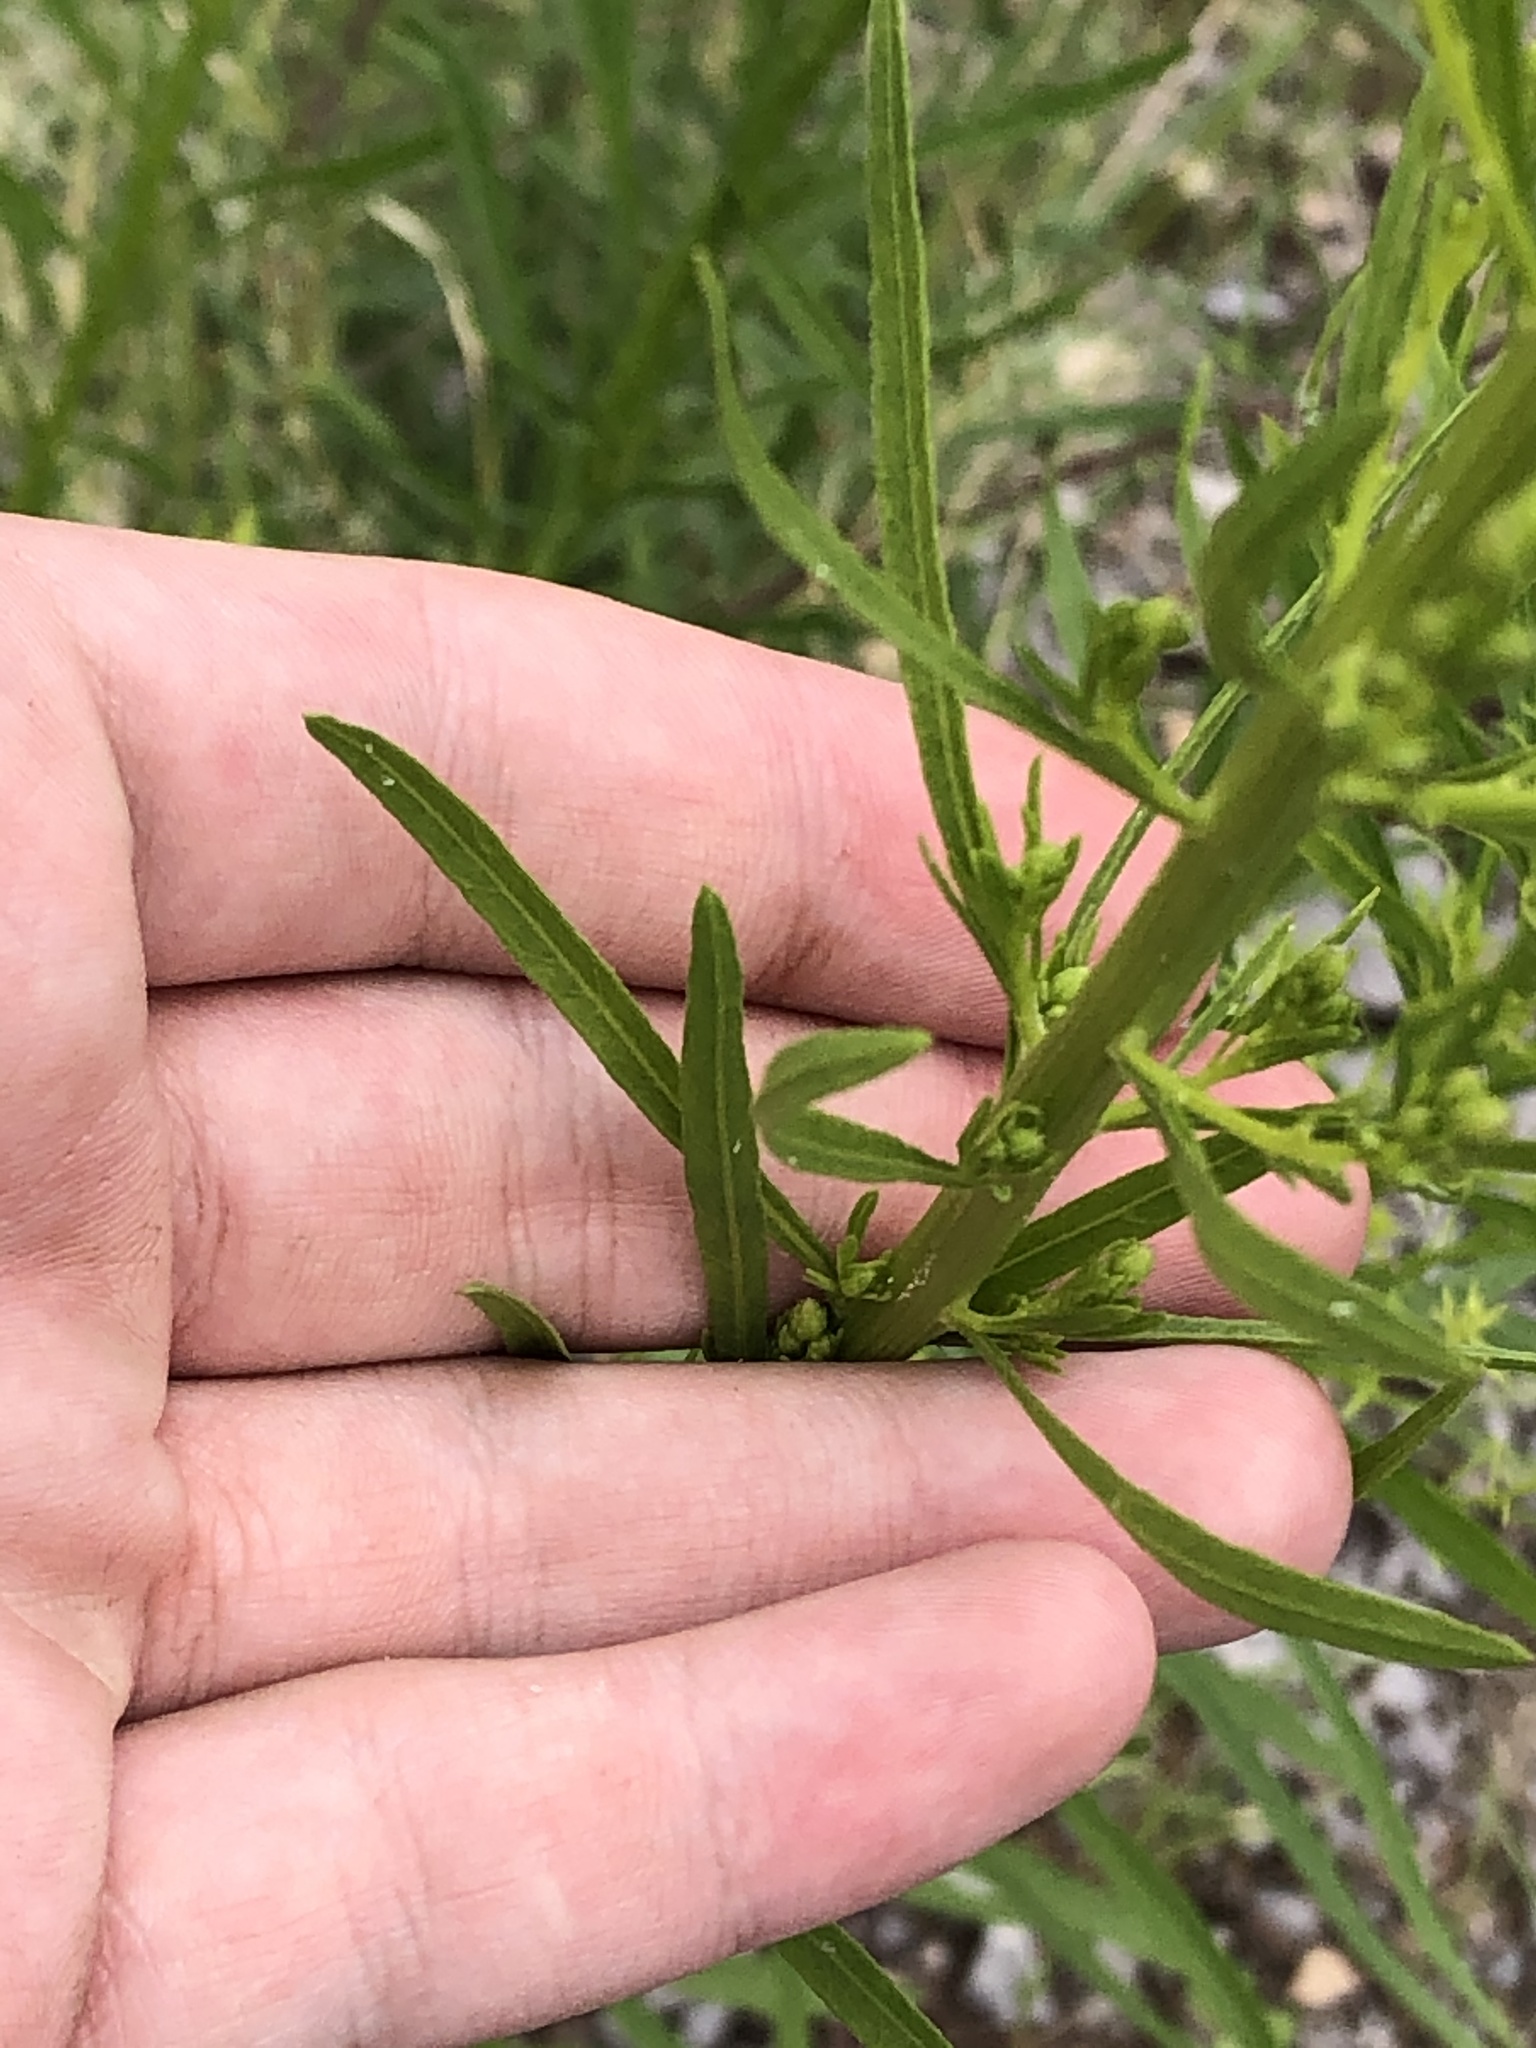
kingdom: Plantae
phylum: Tracheophyta
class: Magnoliopsida
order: Asterales
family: Asteraceae
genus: Erigeron
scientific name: Erigeron canadensis
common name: Canadian fleabane
